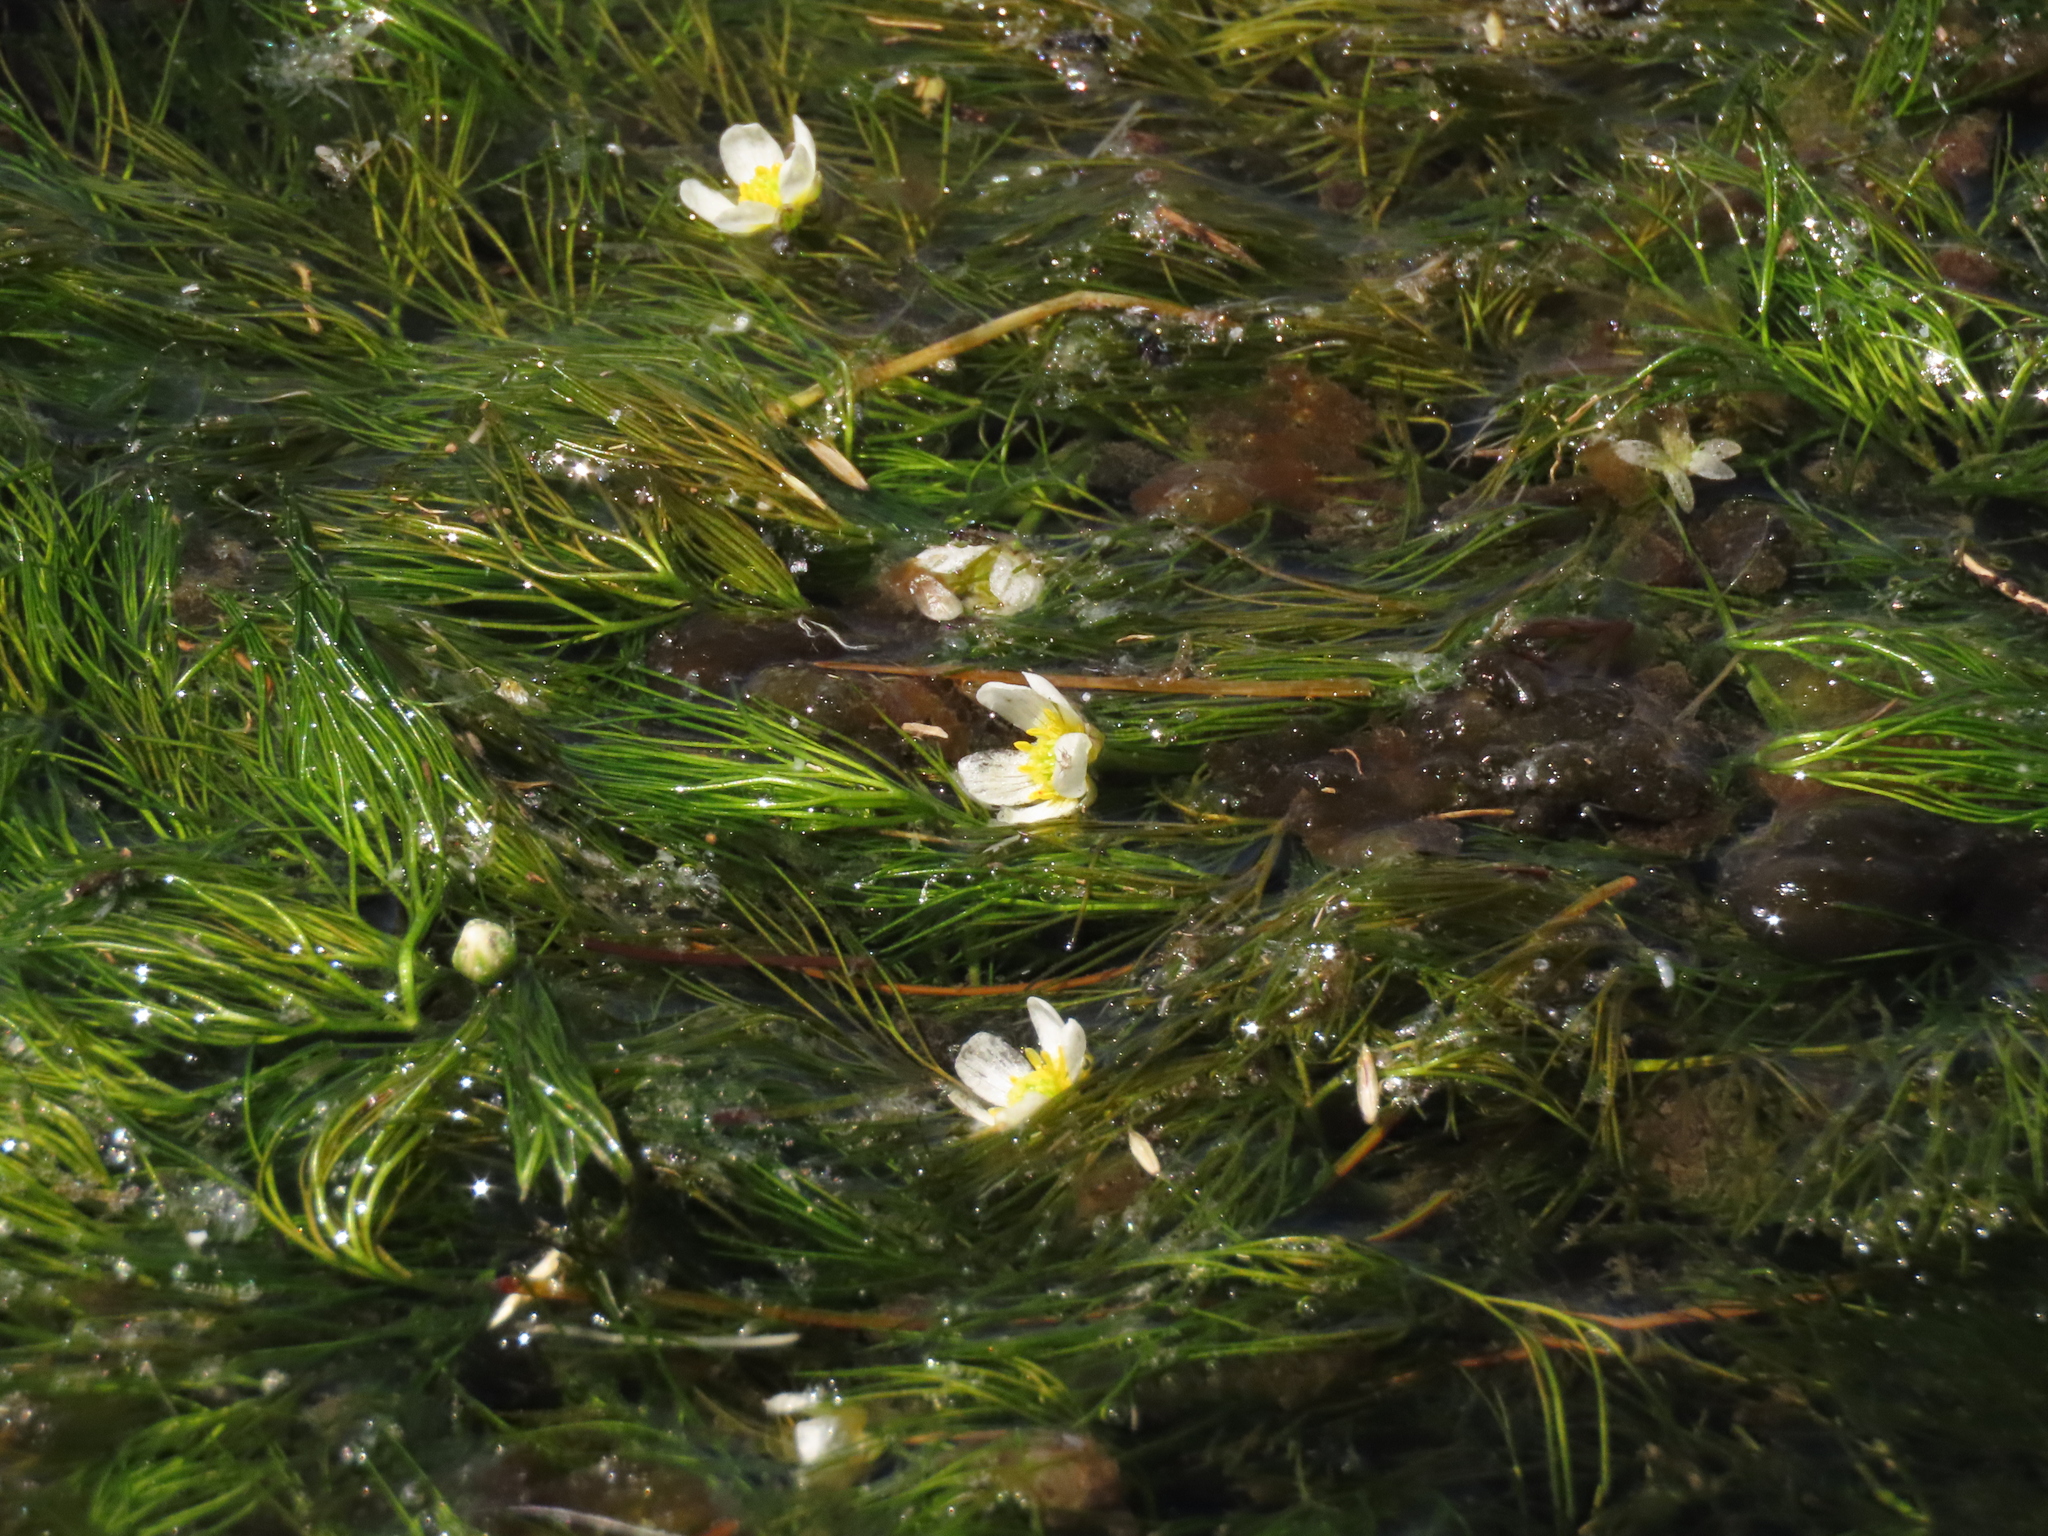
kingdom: Plantae
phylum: Tracheophyta
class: Magnoliopsida
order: Ranunculales
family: Ranunculaceae
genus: Ranunculus
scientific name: Ranunculus aquatilis
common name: Common water-crowfoot
